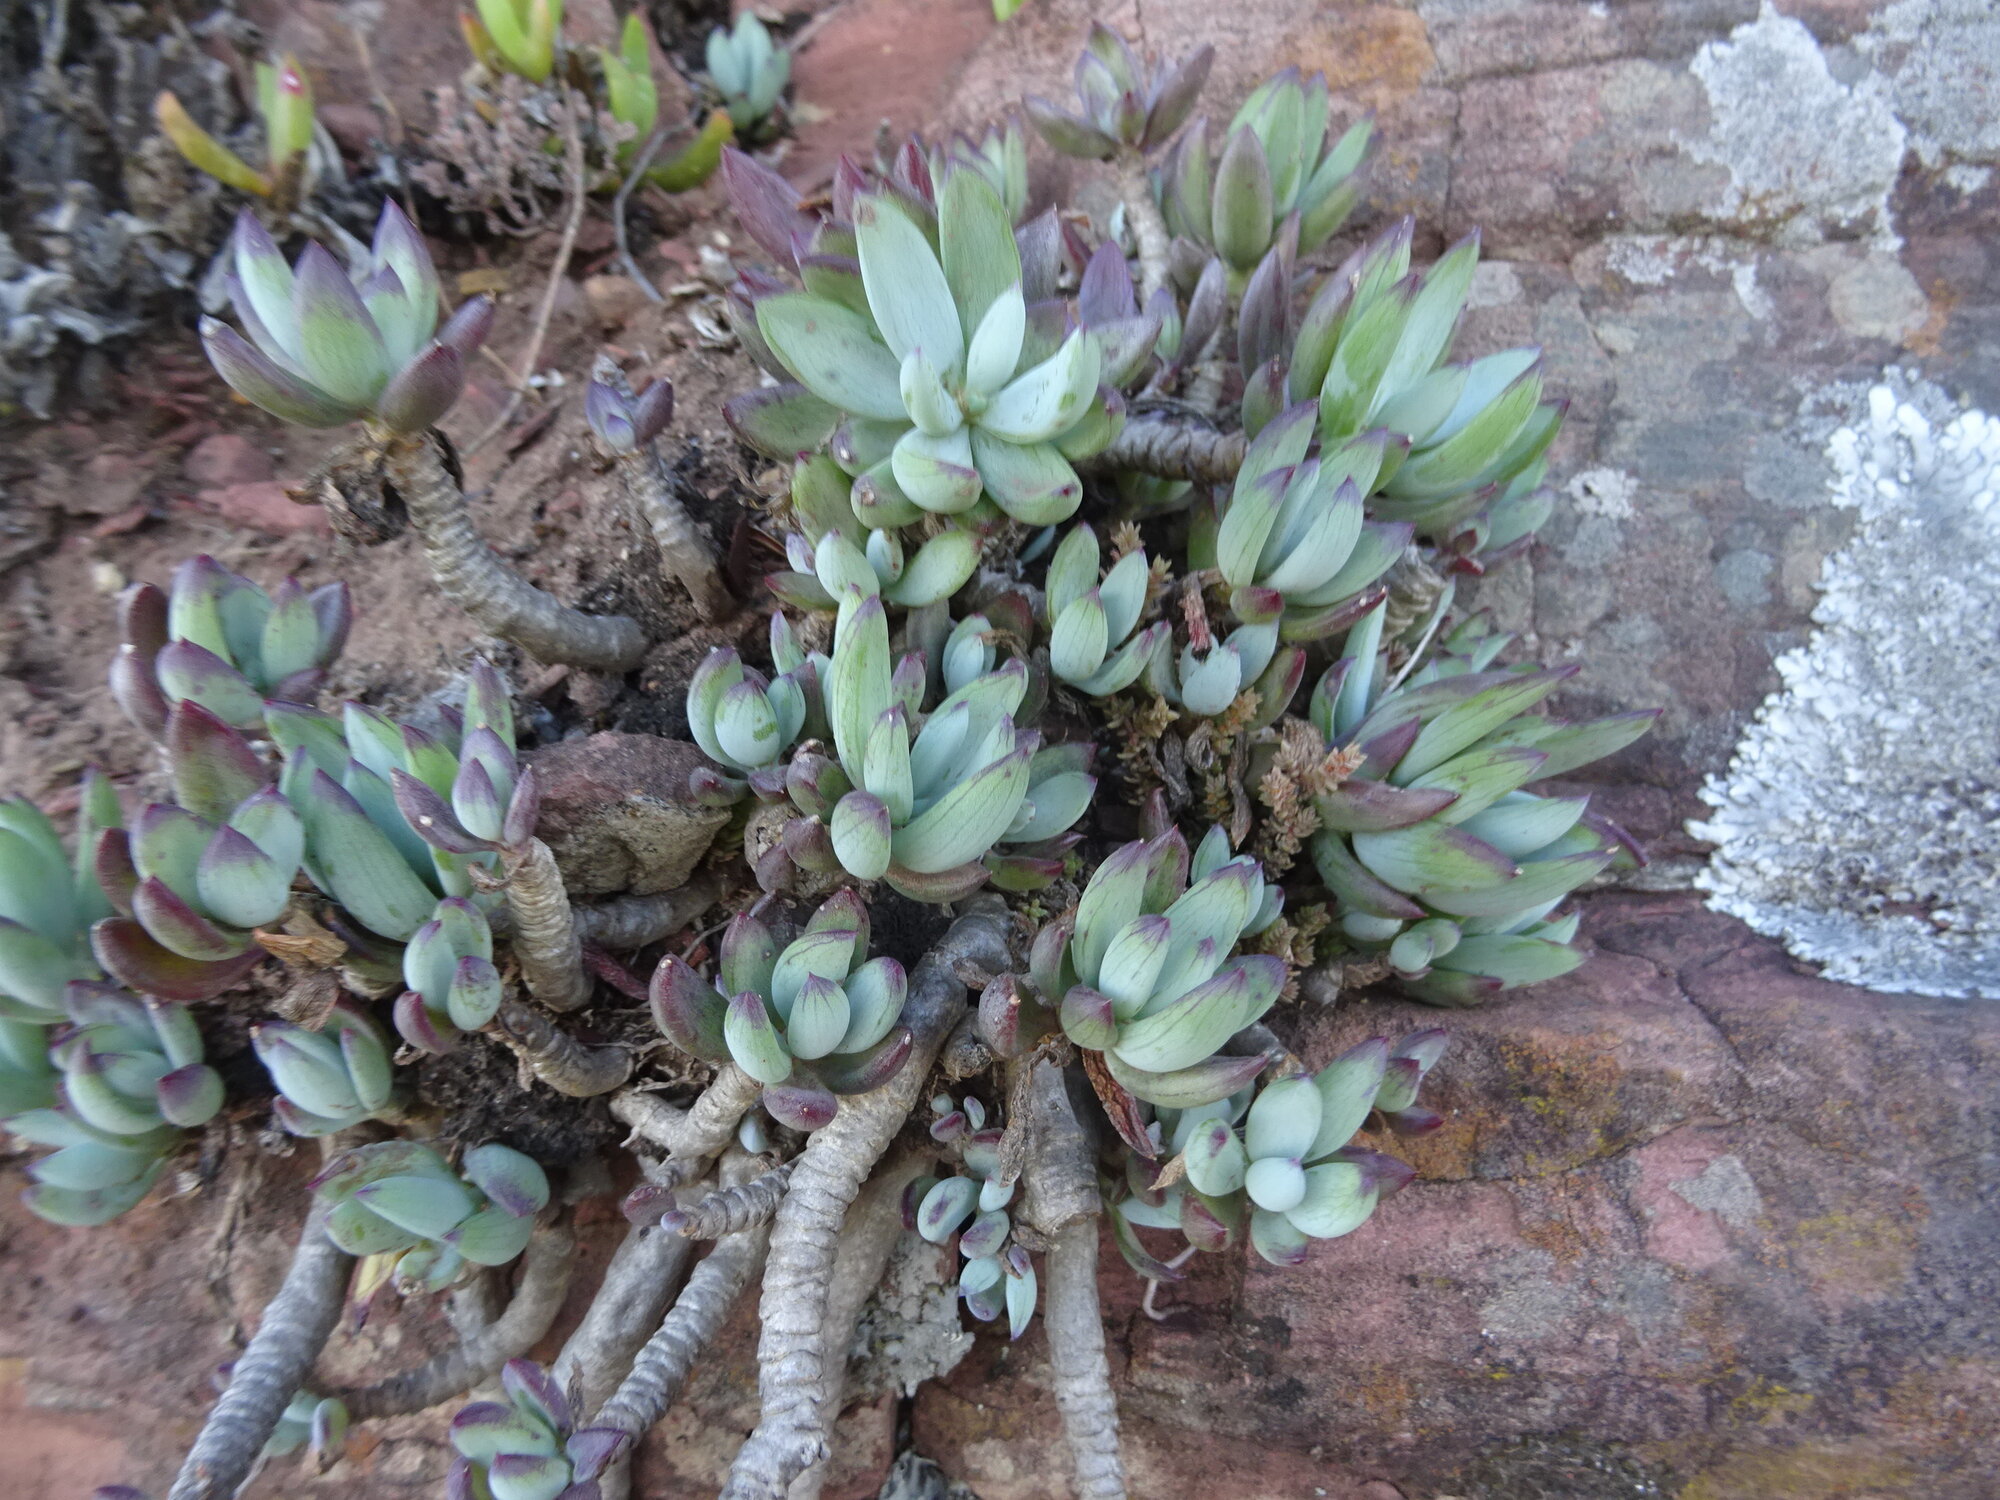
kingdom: Plantae
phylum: Tracheophyta
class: Magnoliopsida
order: Asterales
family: Asteraceae
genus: Curio
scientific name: Curio crassulifolius
